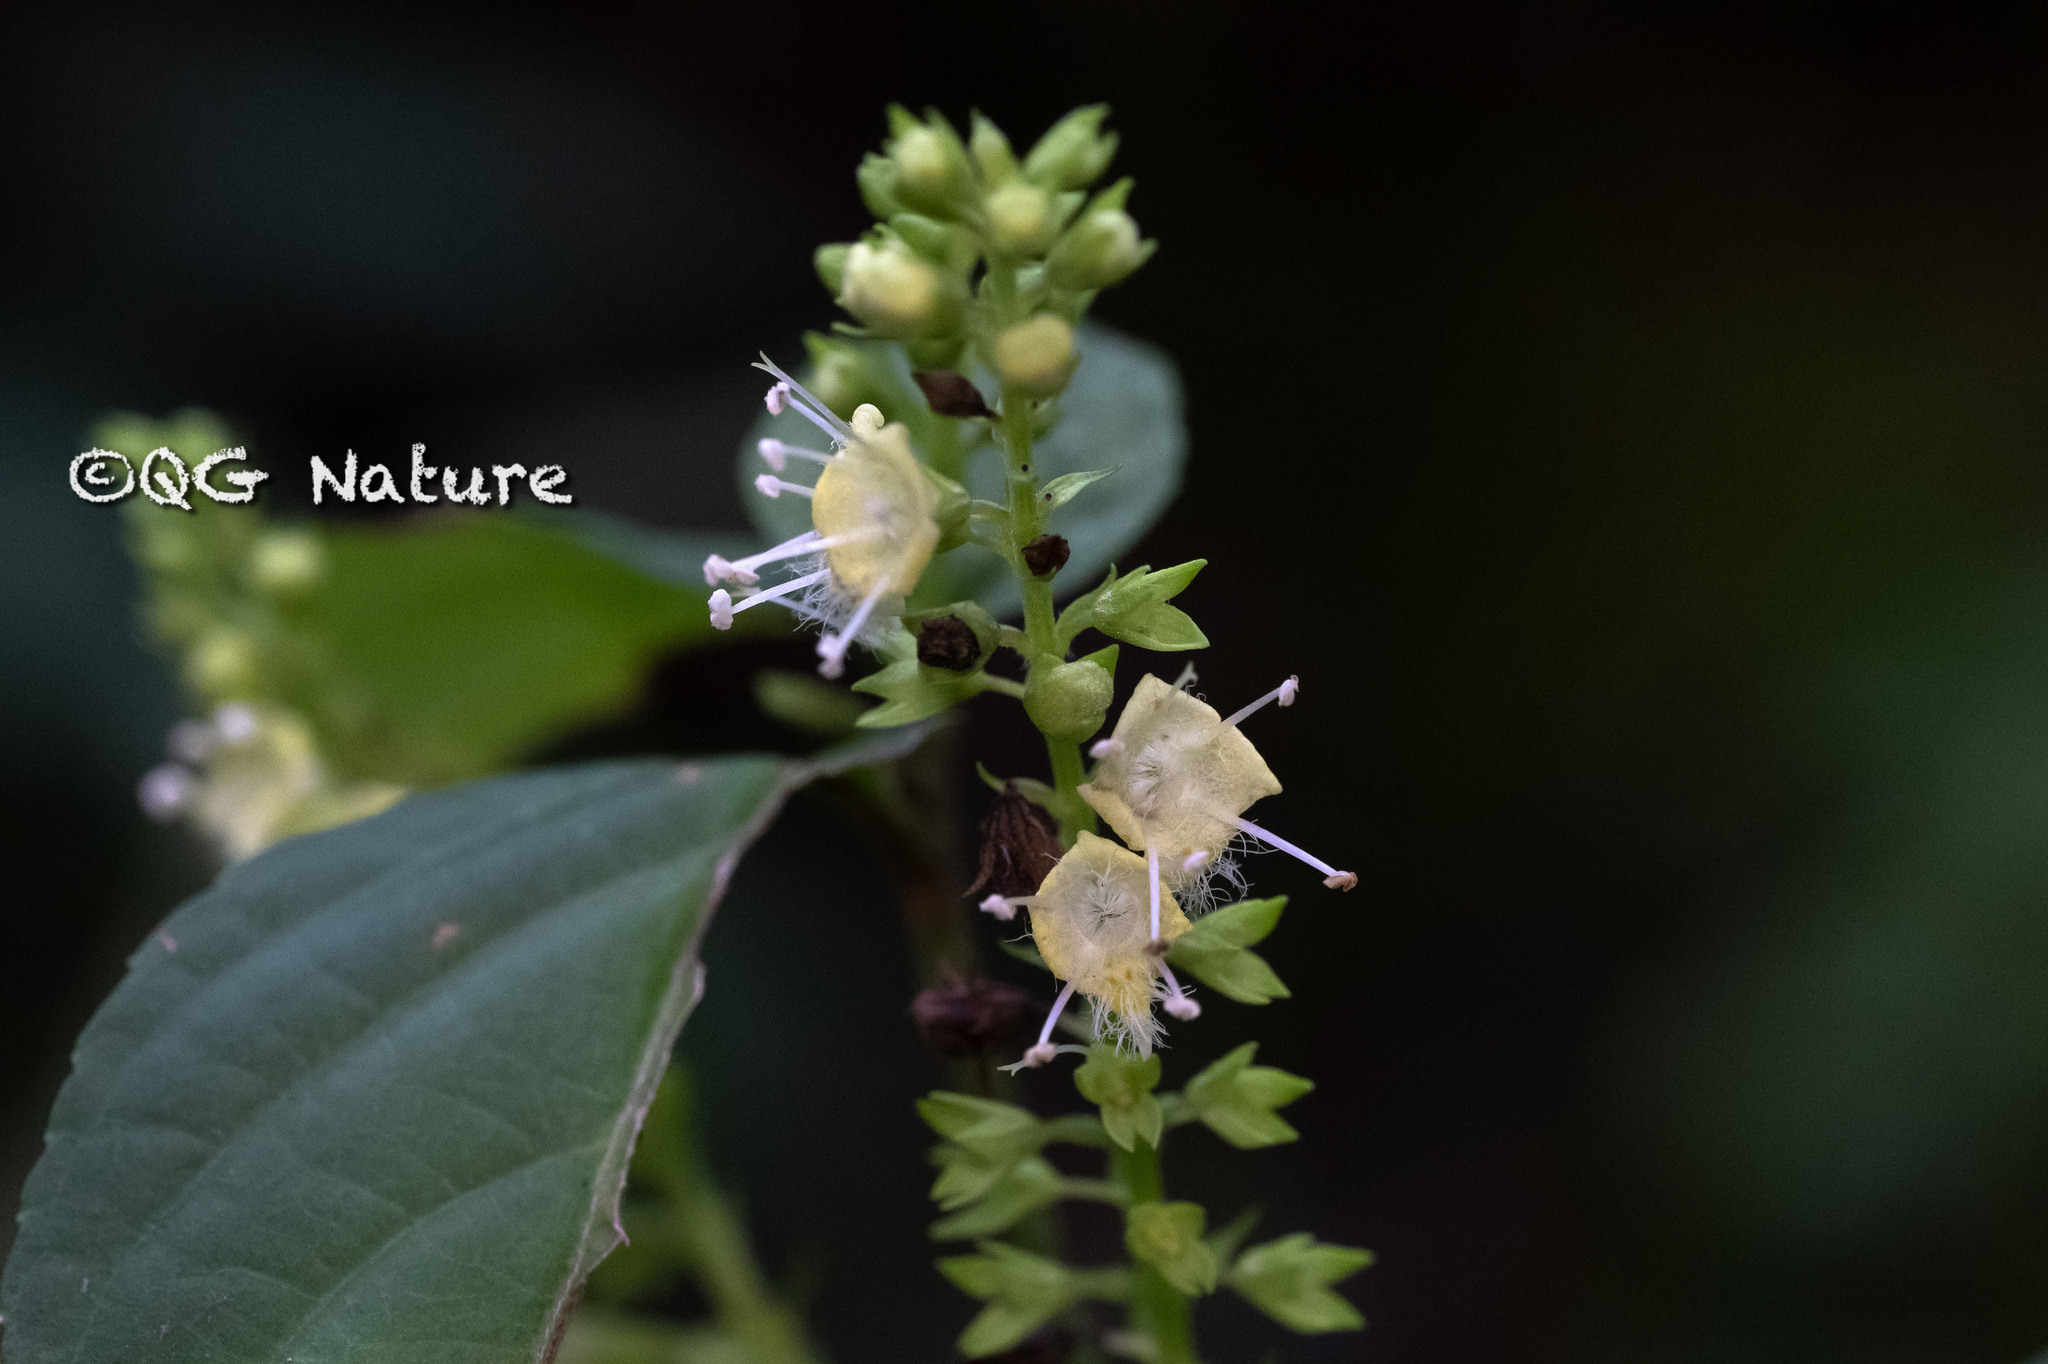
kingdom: Plantae
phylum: Tracheophyta
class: Magnoliopsida
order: Lamiales
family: Lamiaceae
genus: Collinsonia
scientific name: Collinsonia sinensis
